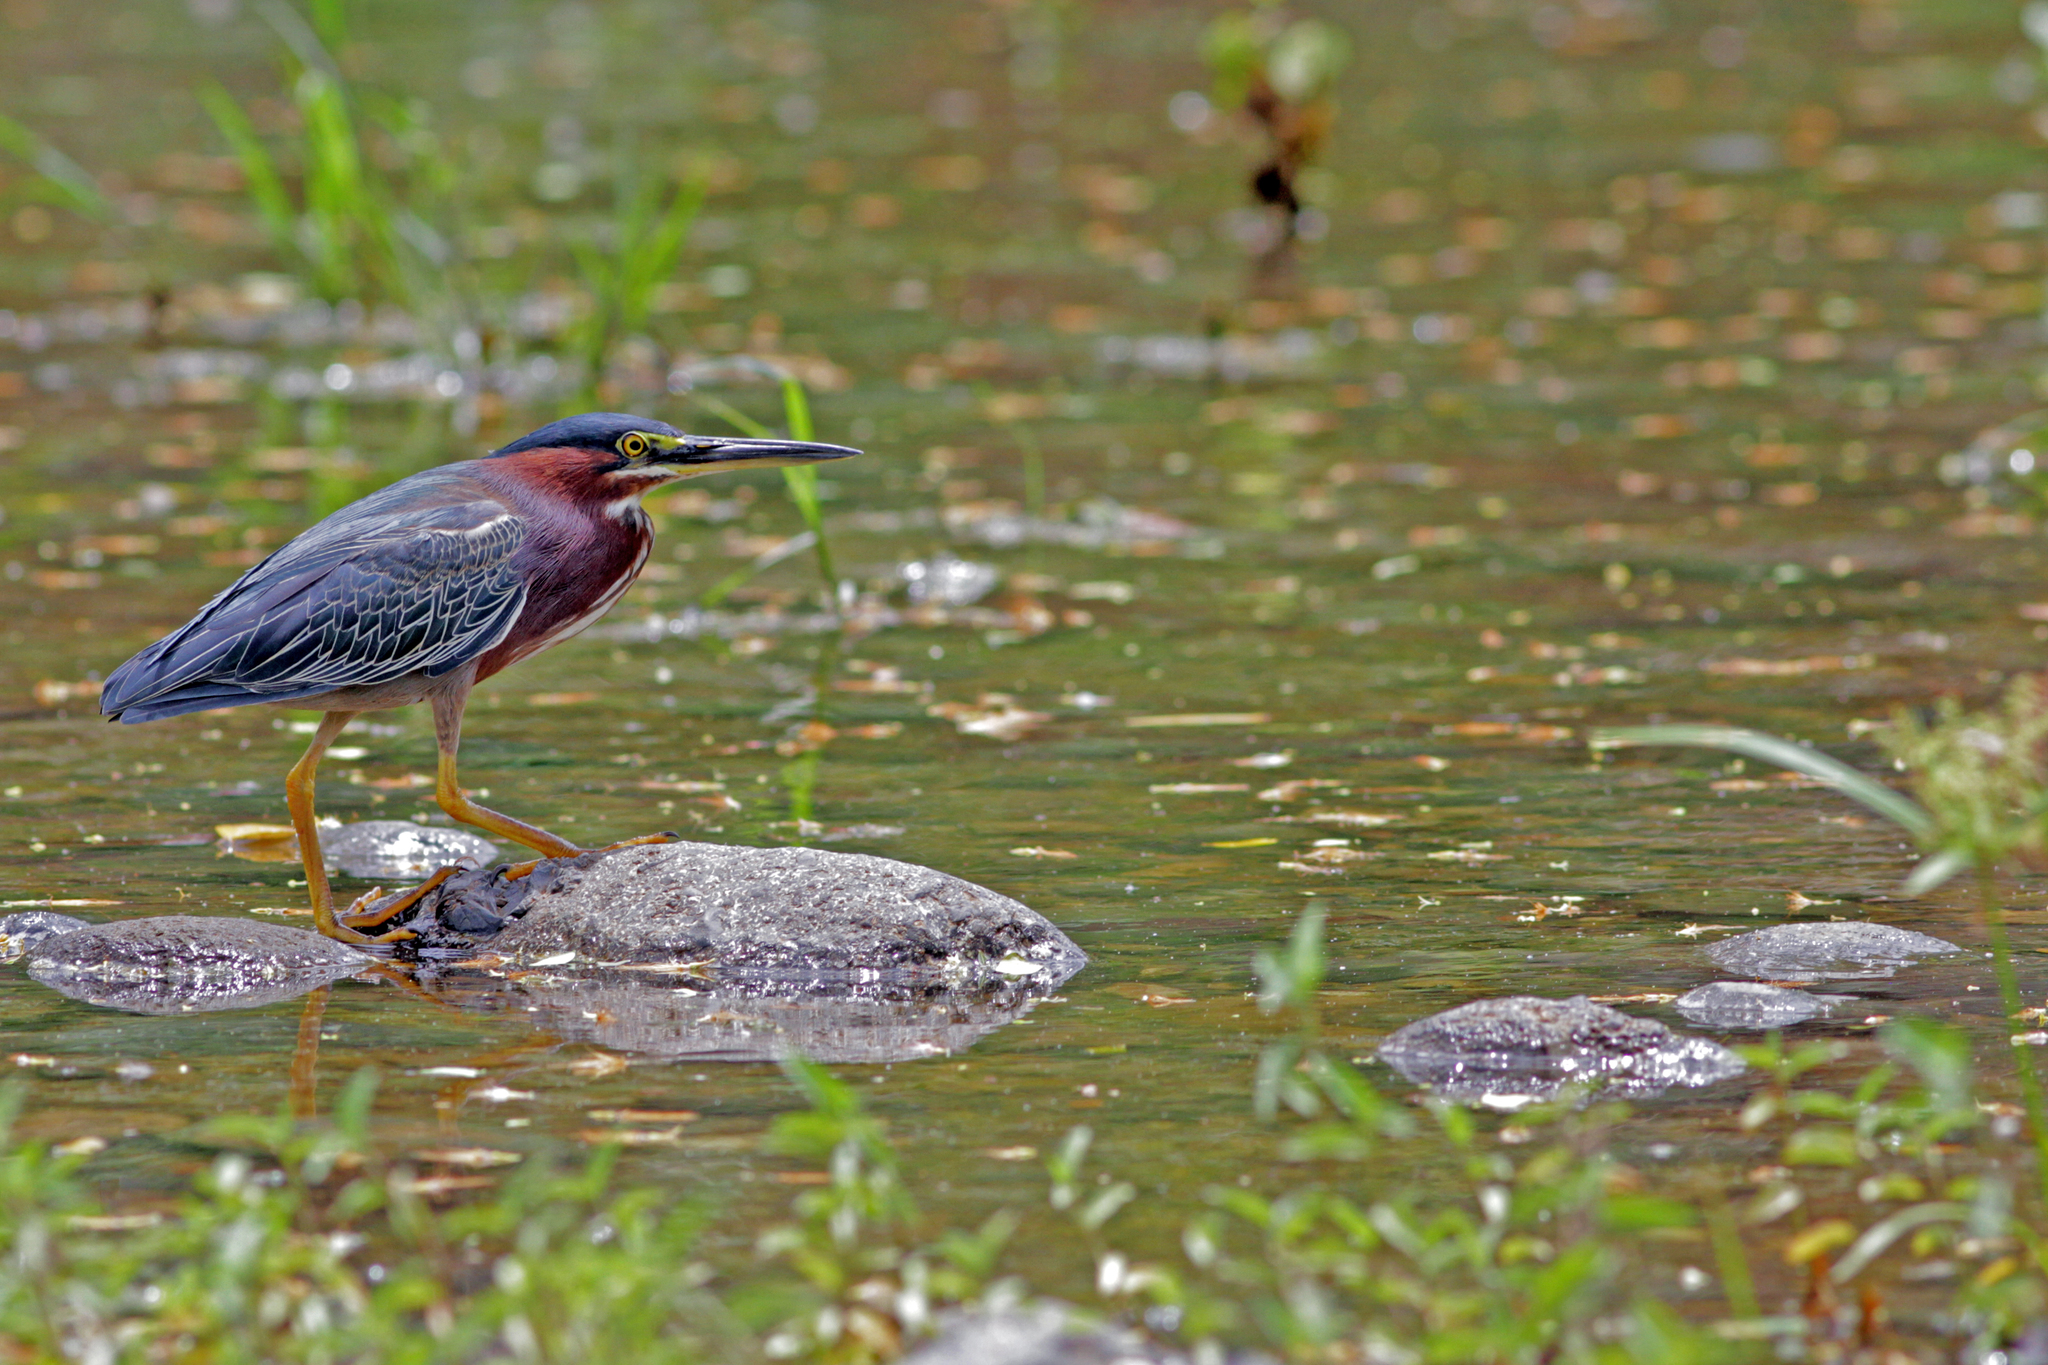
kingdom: Animalia
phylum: Chordata
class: Aves
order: Pelecaniformes
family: Ardeidae
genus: Butorides
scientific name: Butorides virescens
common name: Green heron
